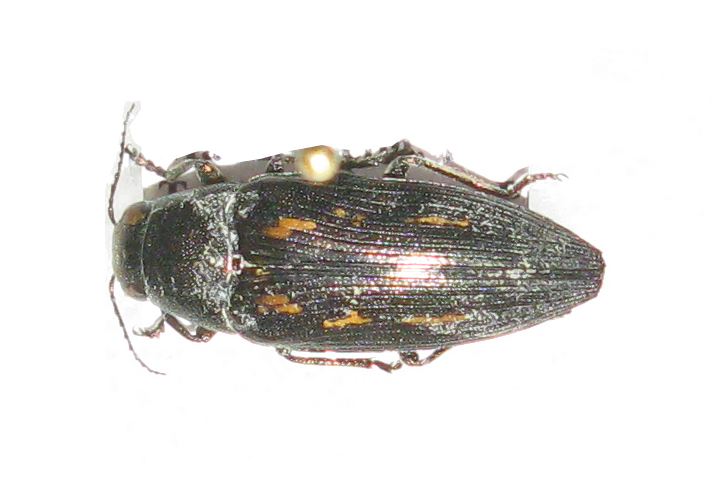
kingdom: Animalia
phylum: Arthropoda
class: Insecta
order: Coleoptera
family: Buprestidae
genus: Buprestis
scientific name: Buprestis dalmatina
